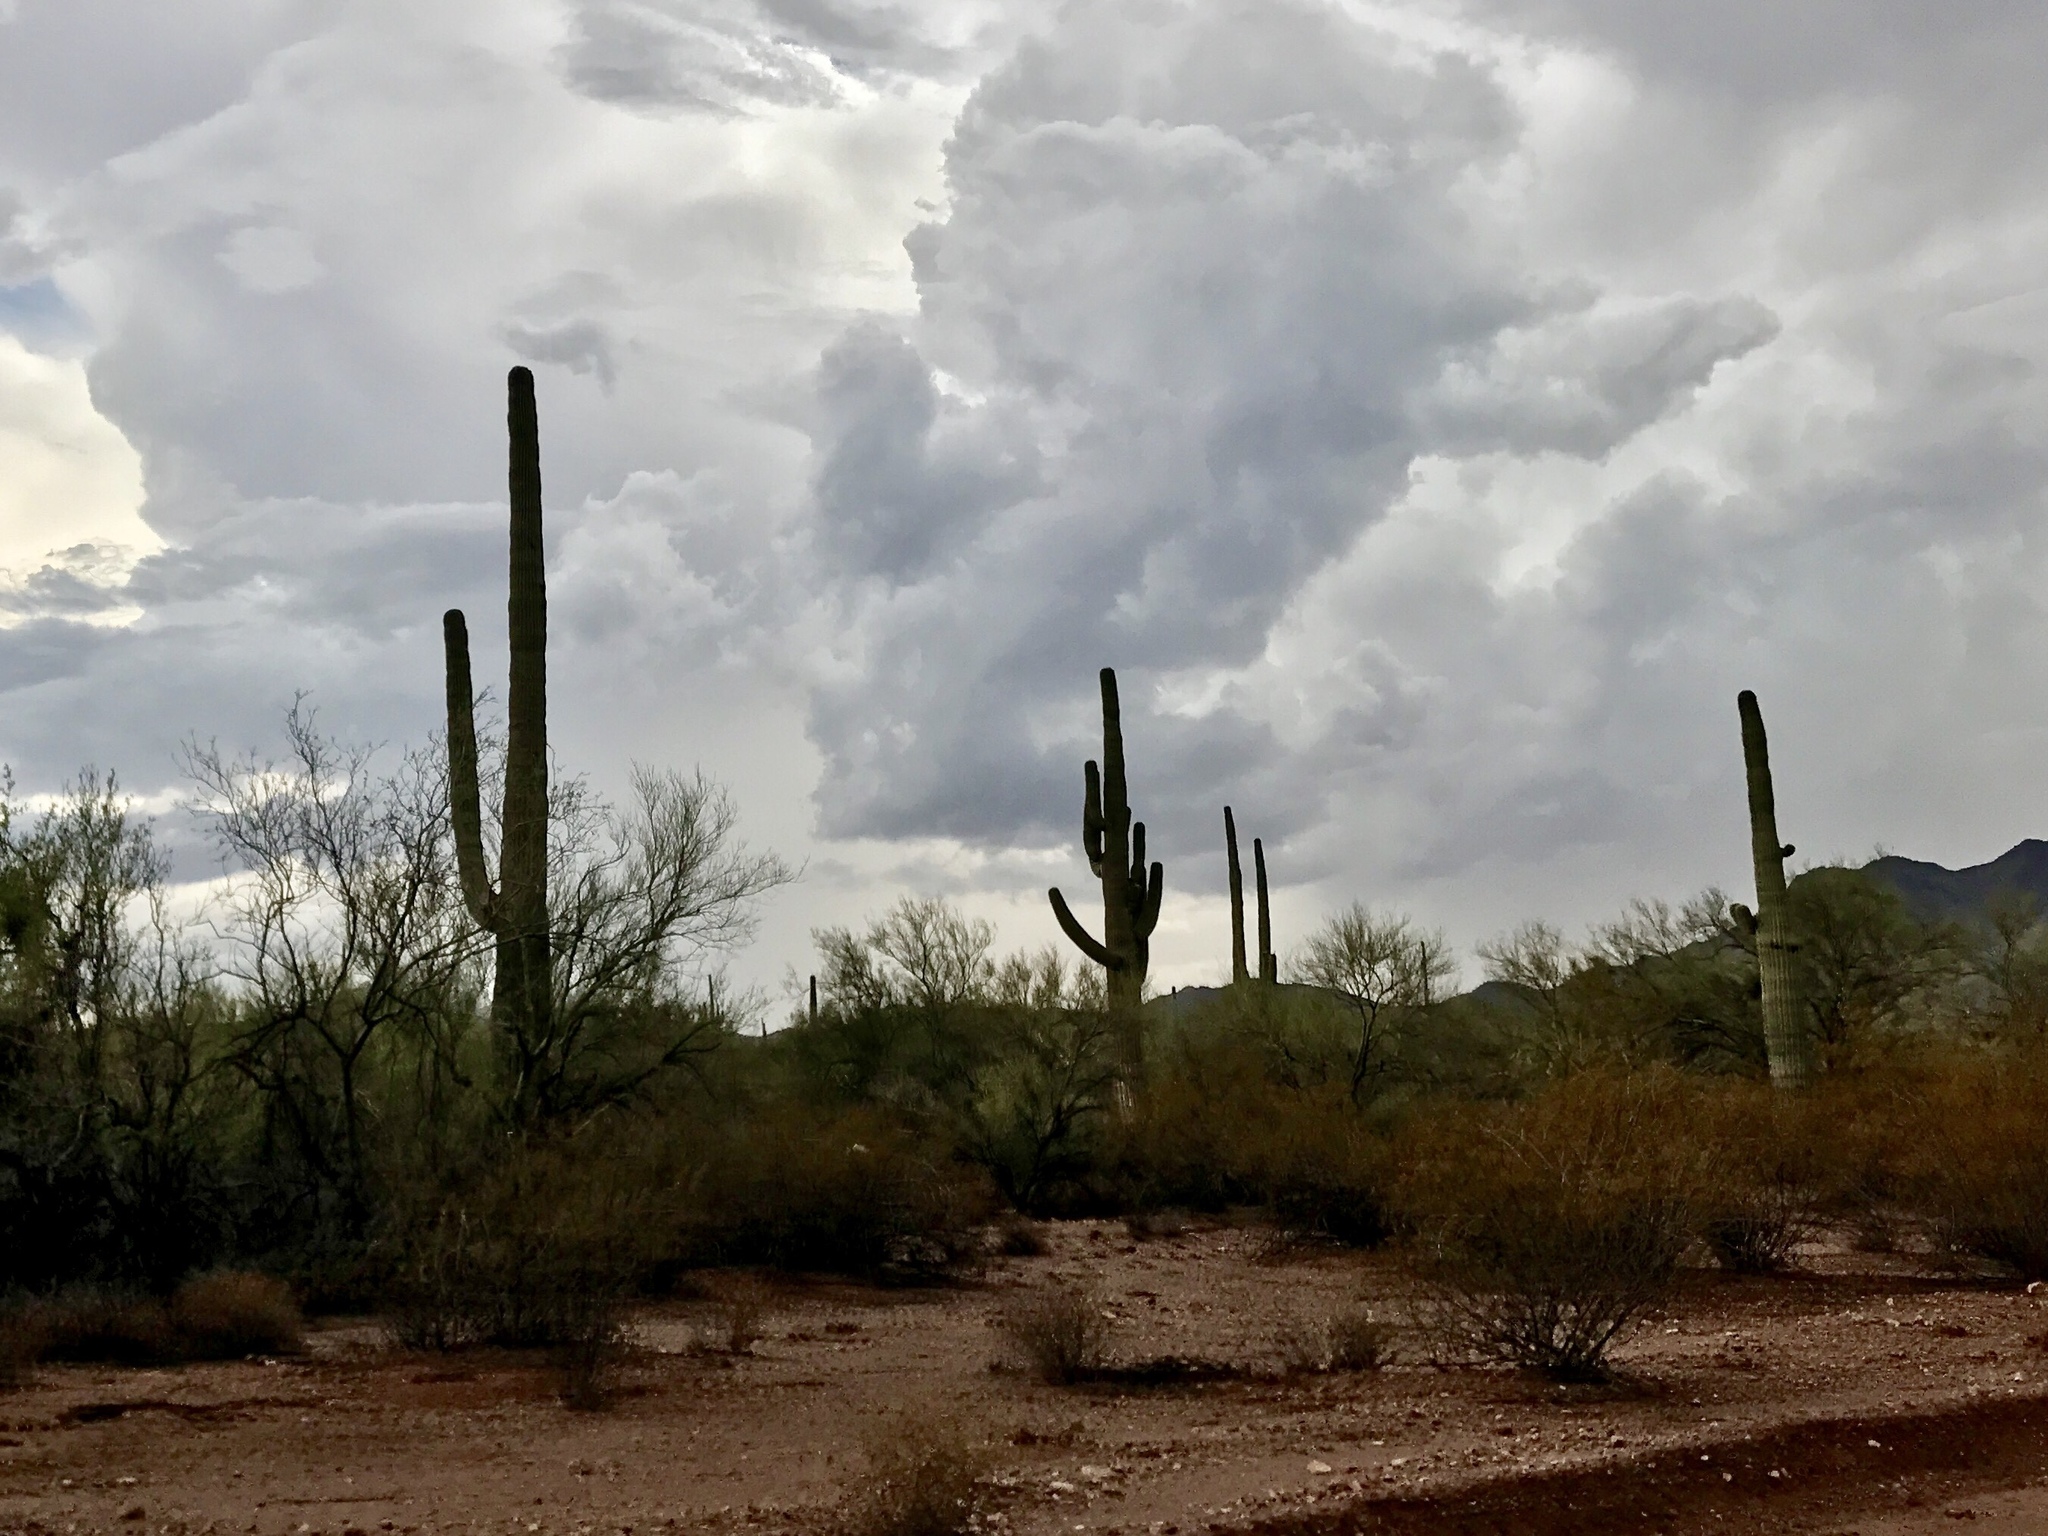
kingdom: Plantae
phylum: Tracheophyta
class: Magnoliopsida
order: Caryophyllales
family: Cactaceae
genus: Carnegiea
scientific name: Carnegiea gigantea
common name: Saguaro
